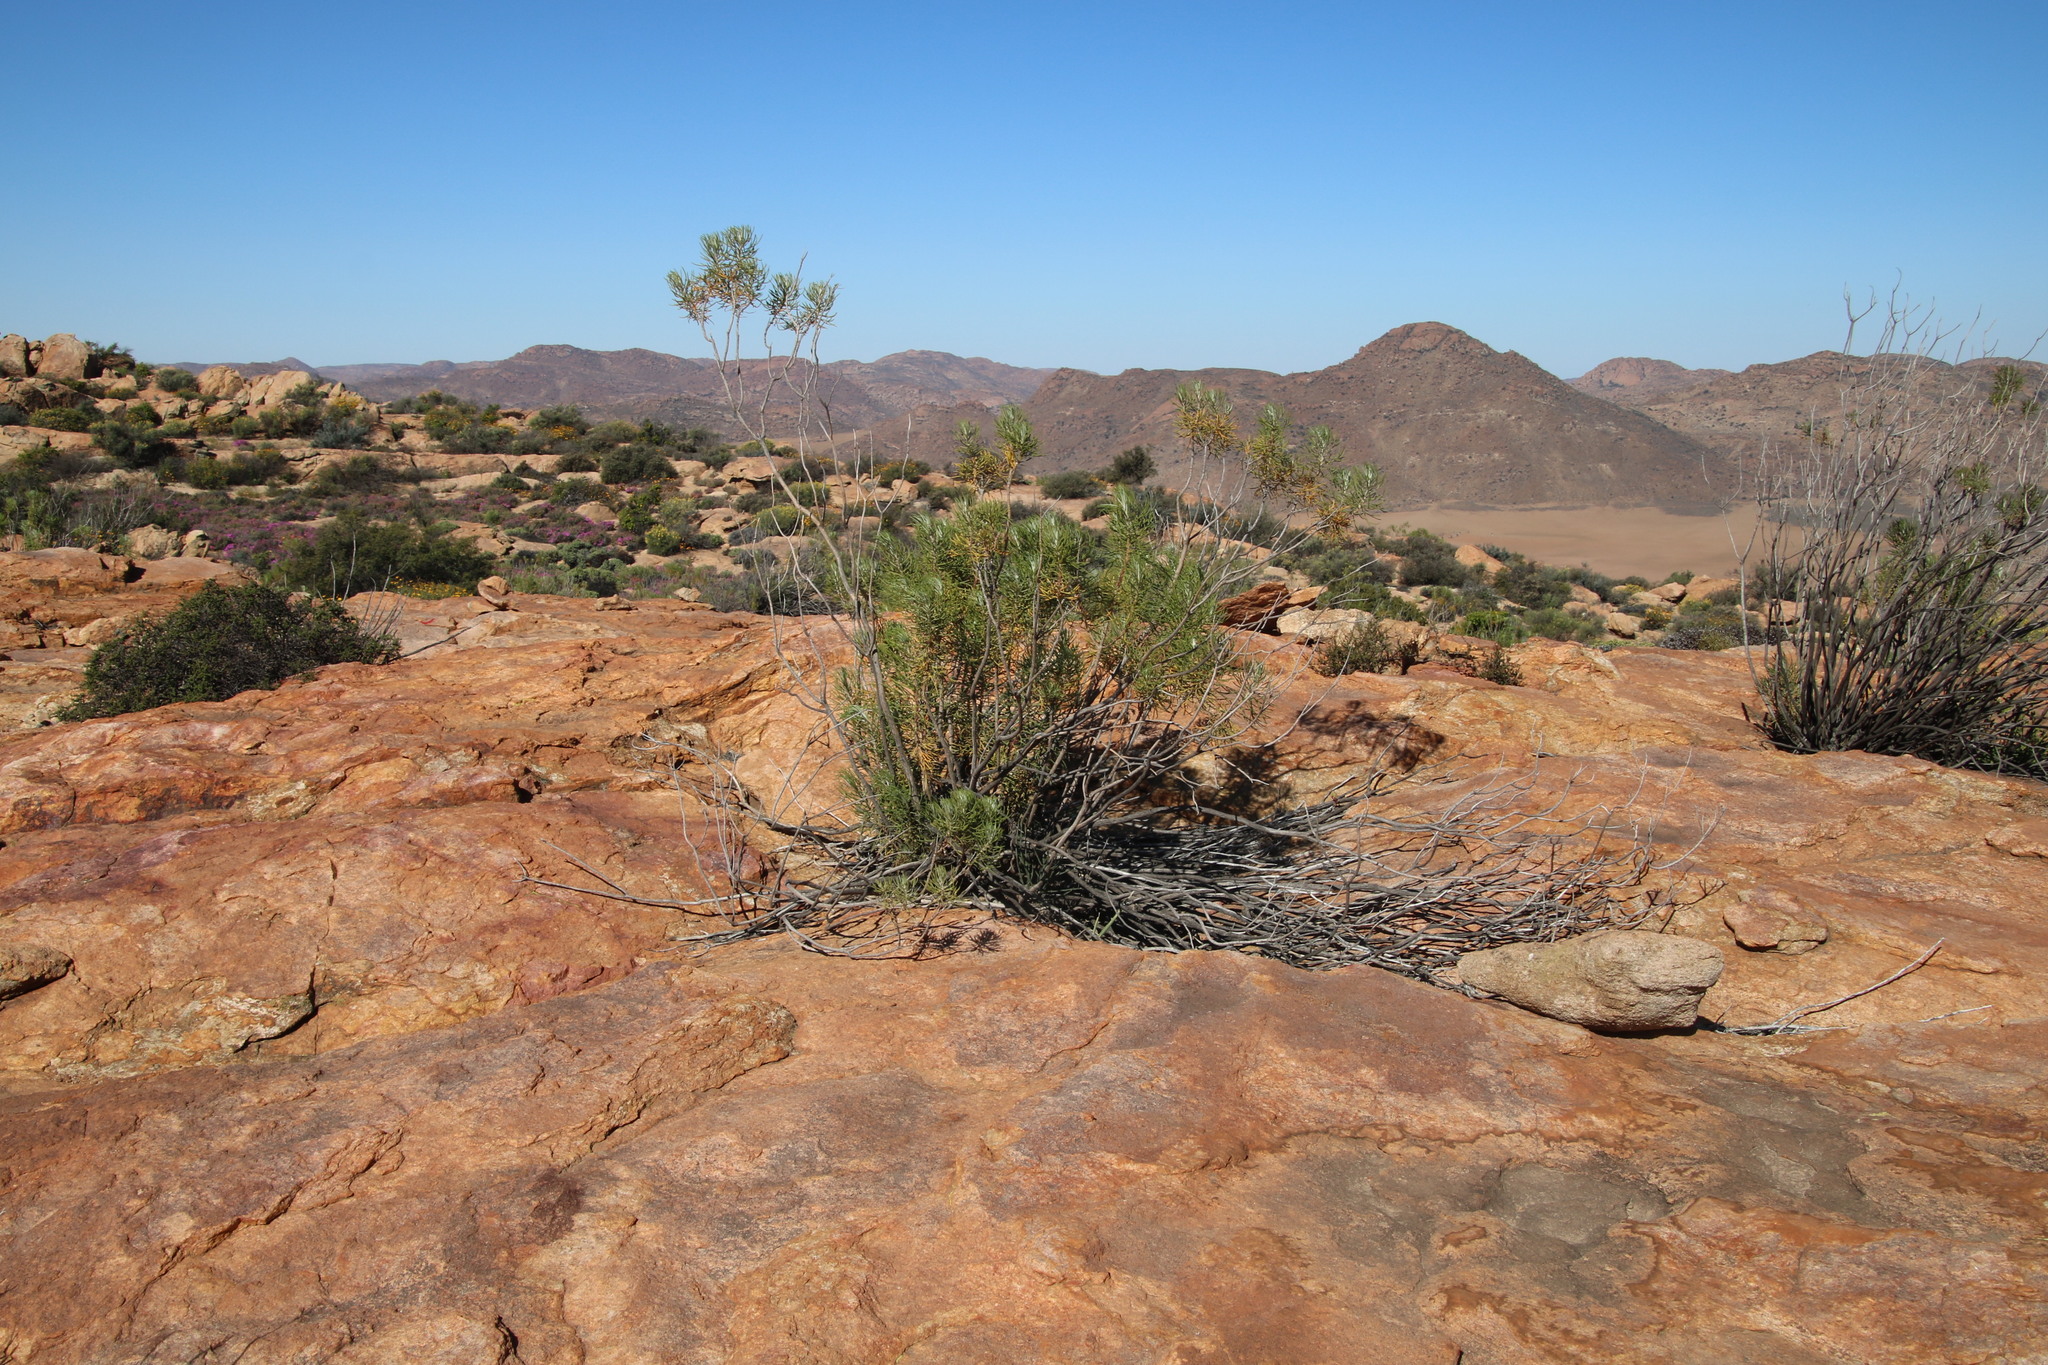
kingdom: Plantae
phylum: Tracheophyta
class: Magnoliopsida
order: Asterales
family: Asteraceae
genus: Euryops
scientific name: Euryops tenuissimus
